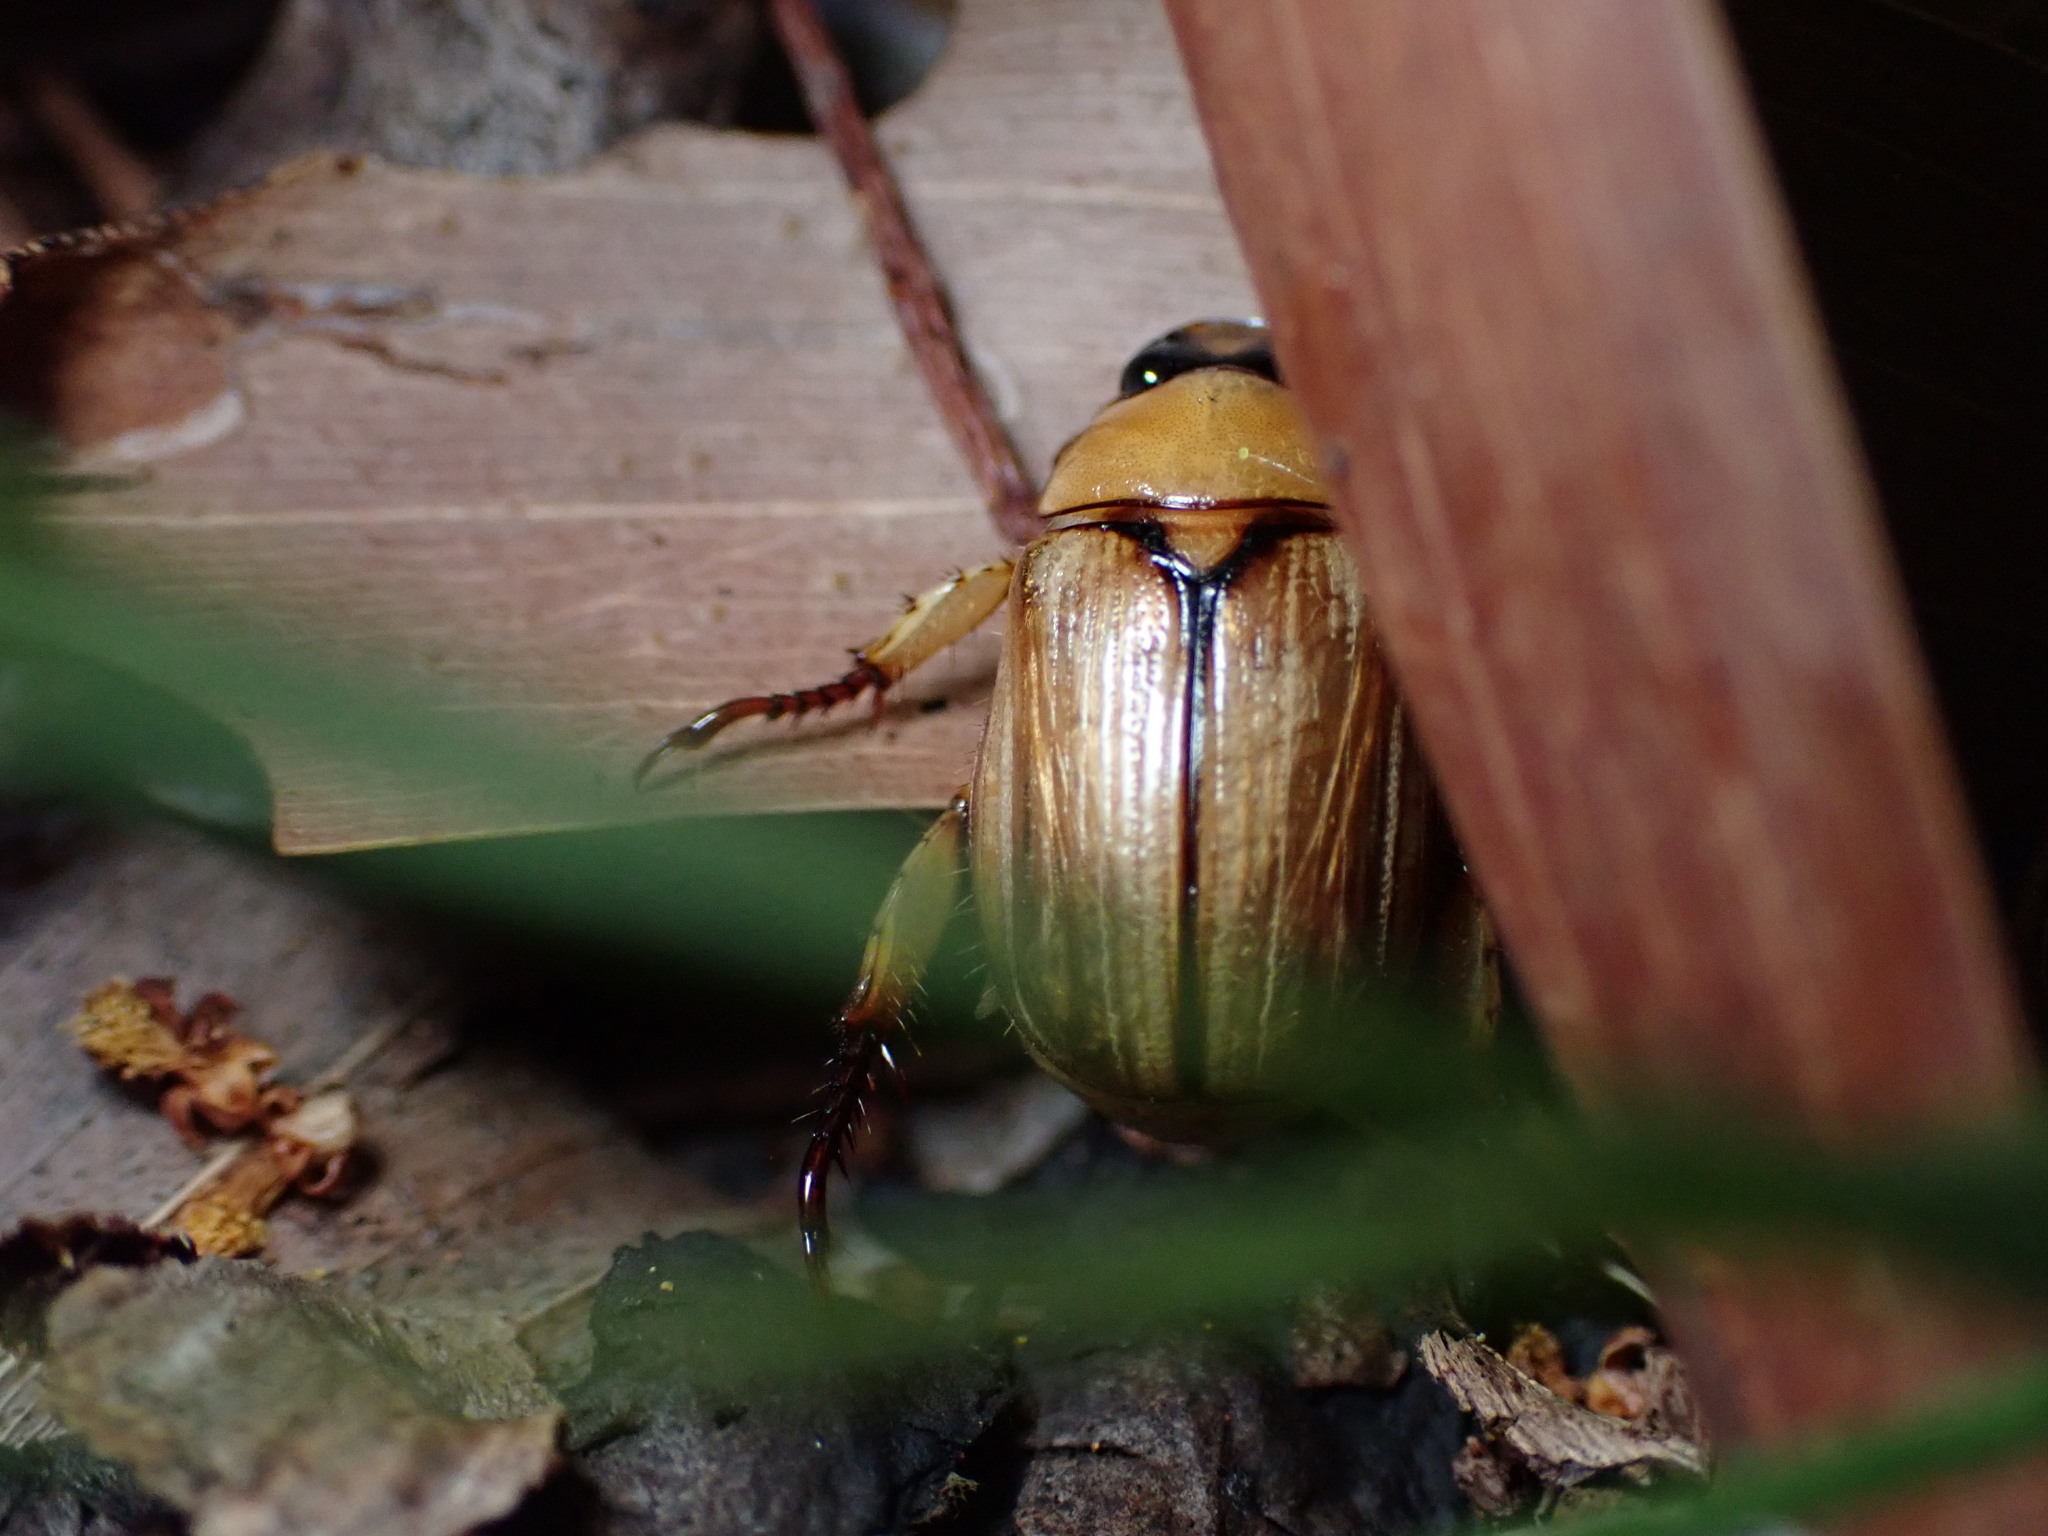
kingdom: Animalia
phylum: Arthropoda
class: Insecta
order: Coleoptera
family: Scarabaeidae
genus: Anomala
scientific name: Anomala pallida
